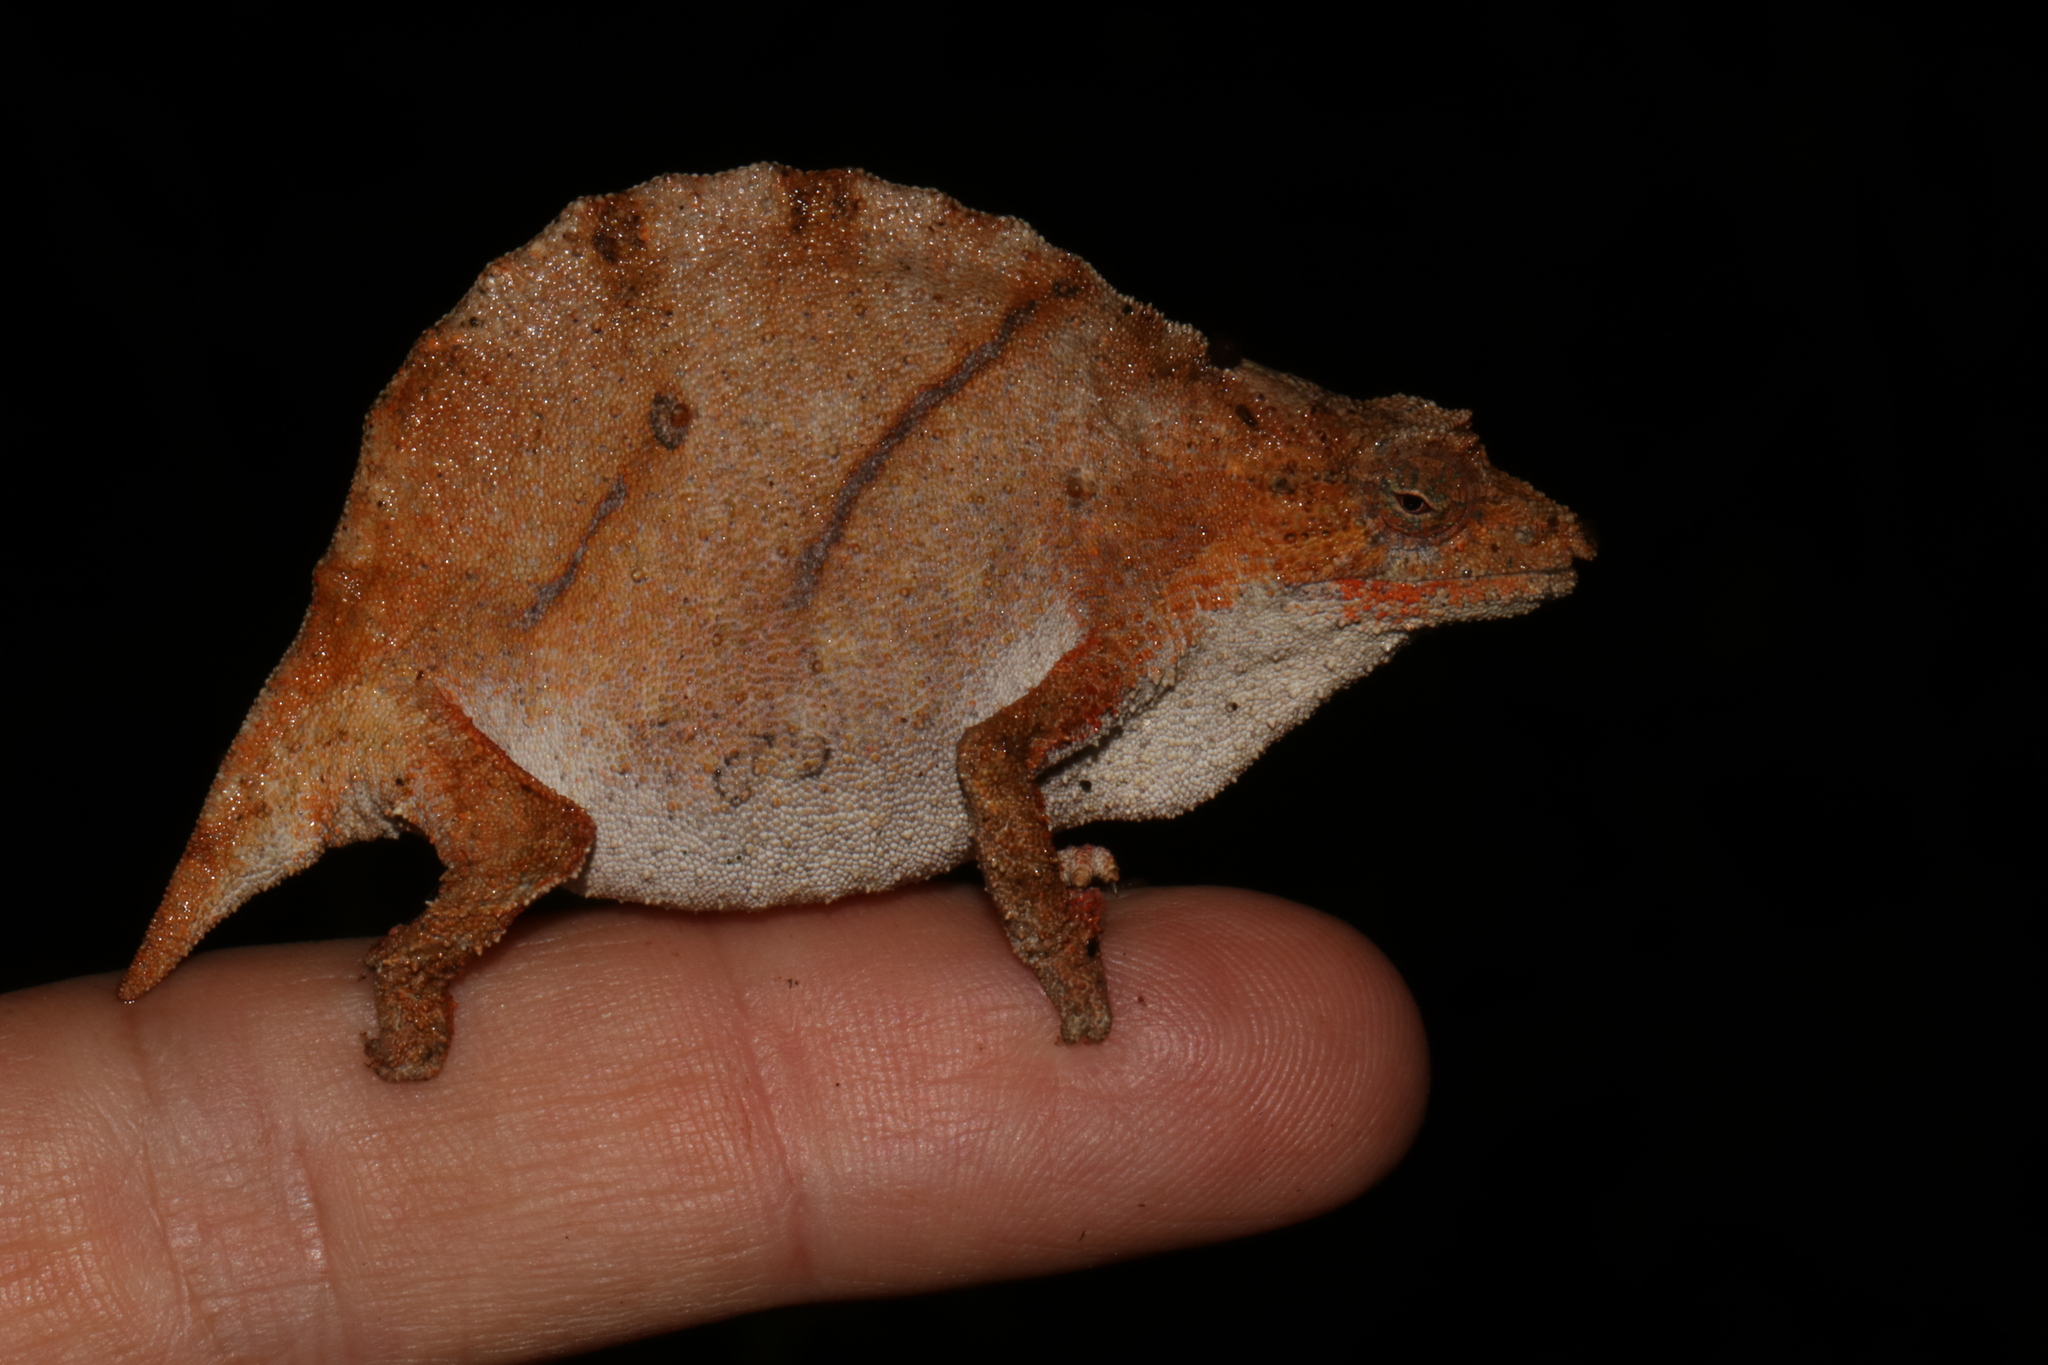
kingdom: Animalia
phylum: Chordata
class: Squamata
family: Chamaeleonidae
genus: Rhampholeon
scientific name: Rhampholeon nchisiensis
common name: South african stumptail chameleon
